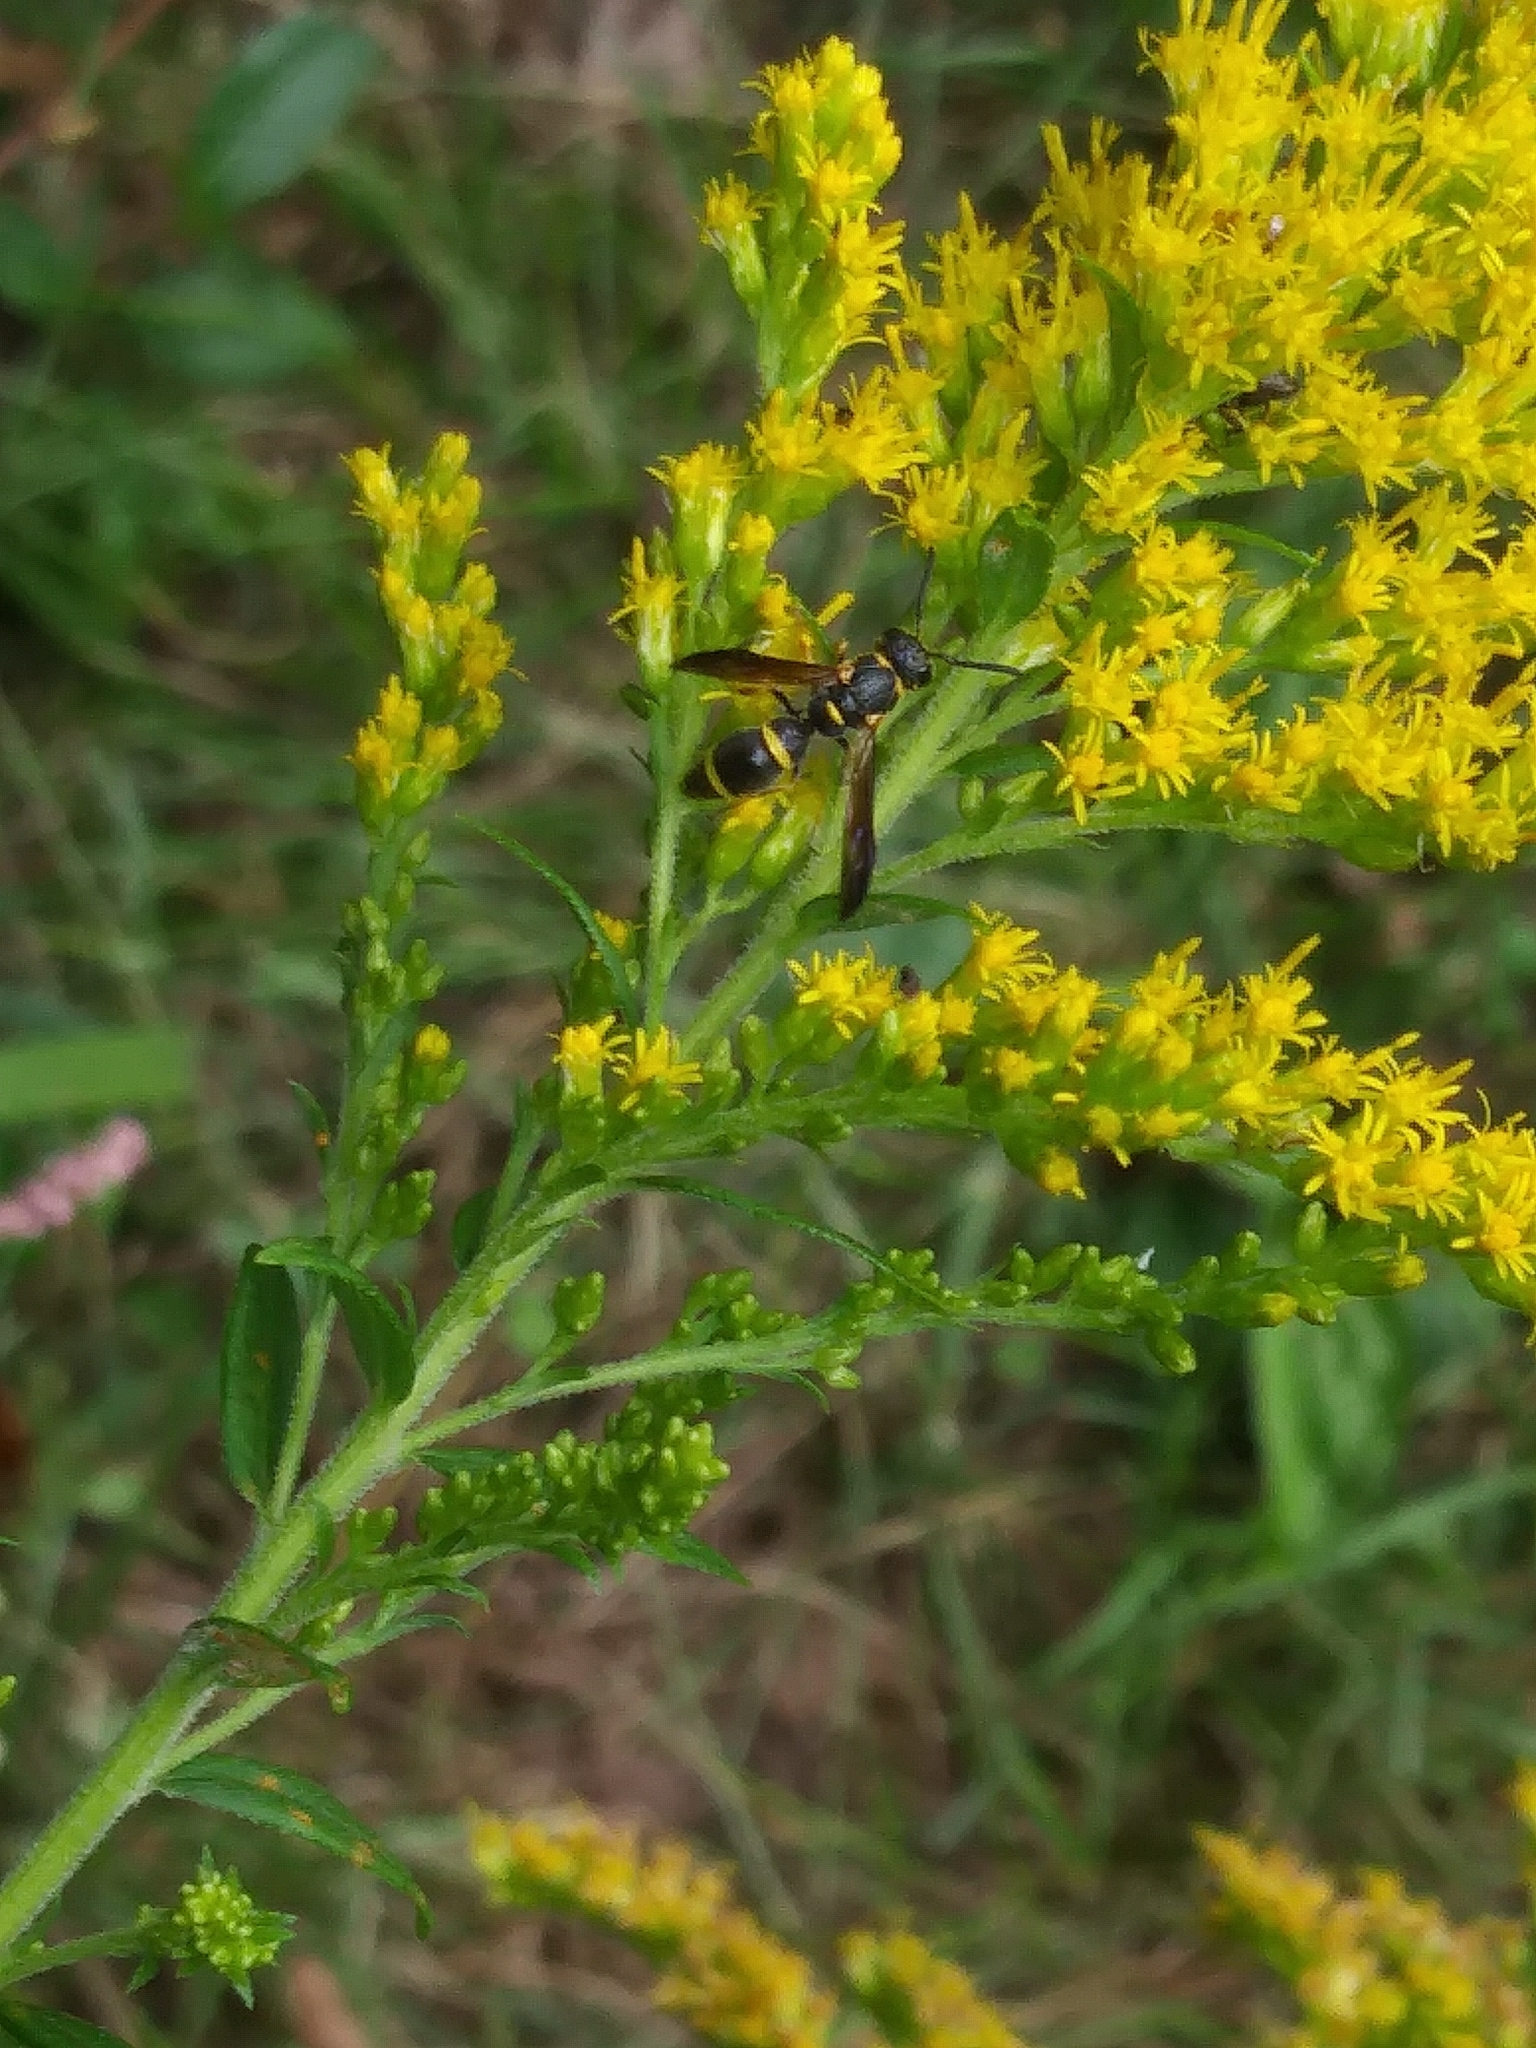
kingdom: Animalia
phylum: Arthropoda
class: Insecta
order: Hymenoptera
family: Eumenidae
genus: Parancistrocerus
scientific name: Parancistrocerus perennis
